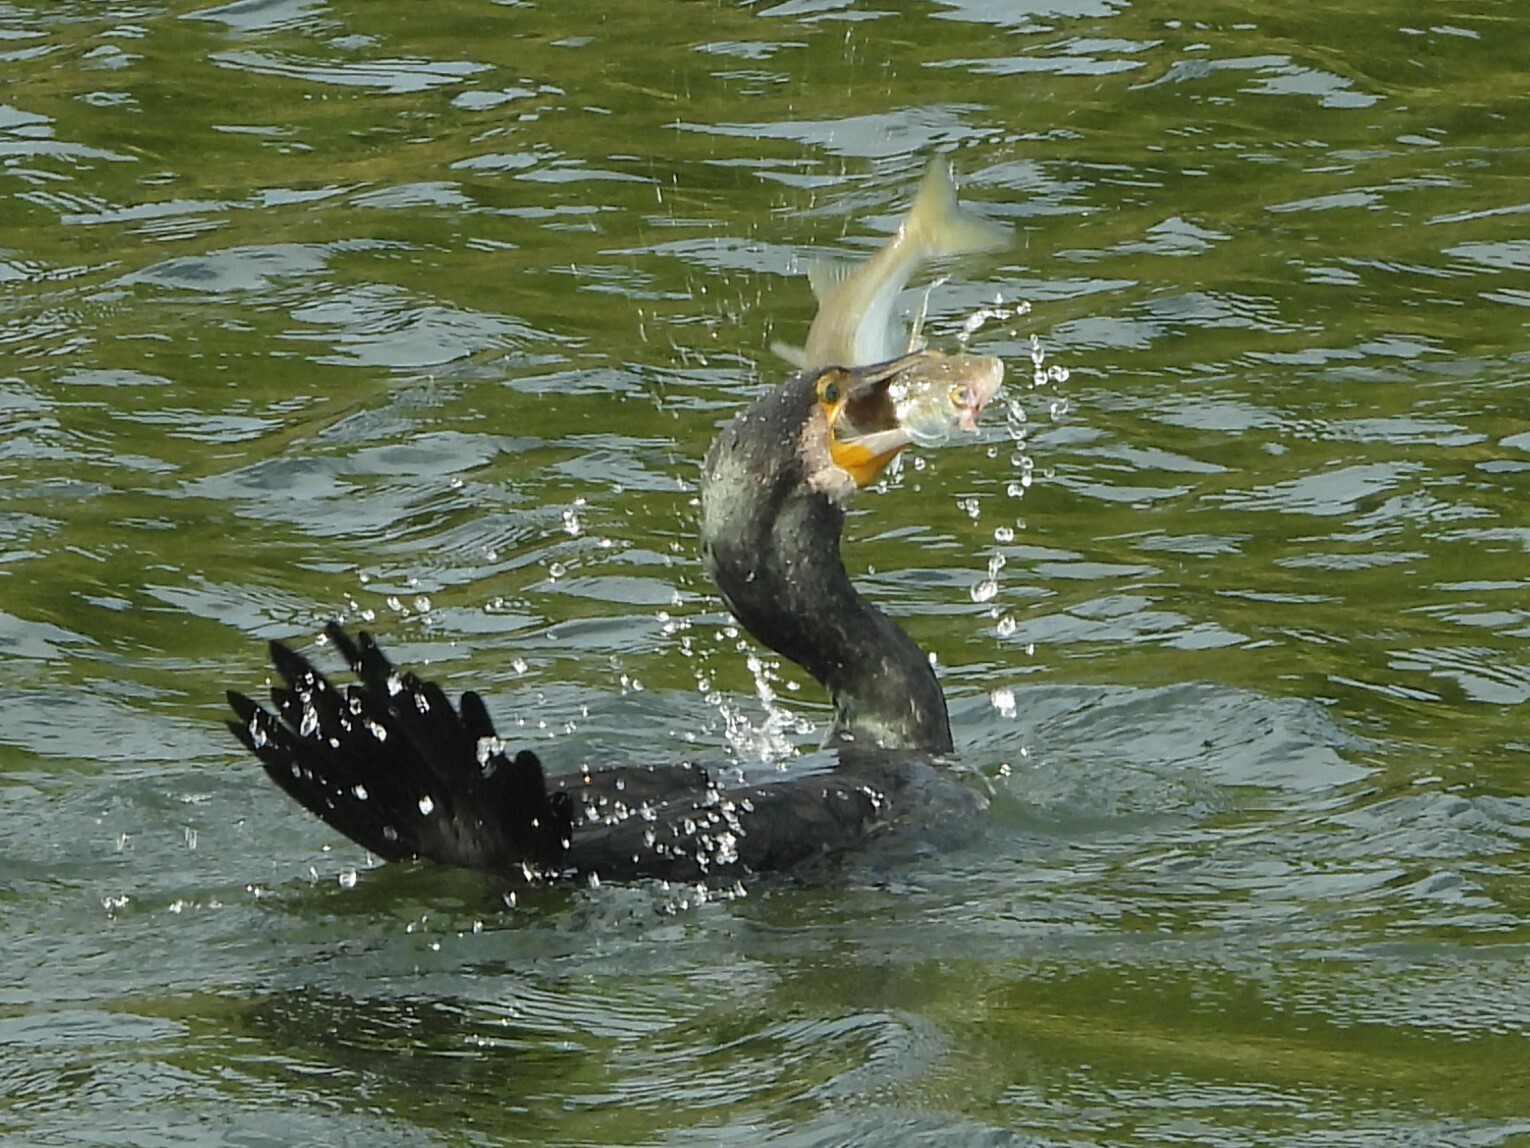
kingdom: Animalia
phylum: Chordata
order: Mugiliformes
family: Mugilidae
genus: Aldrichetta
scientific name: Aldrichetta forsteri
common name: Yellow-eye mullet
